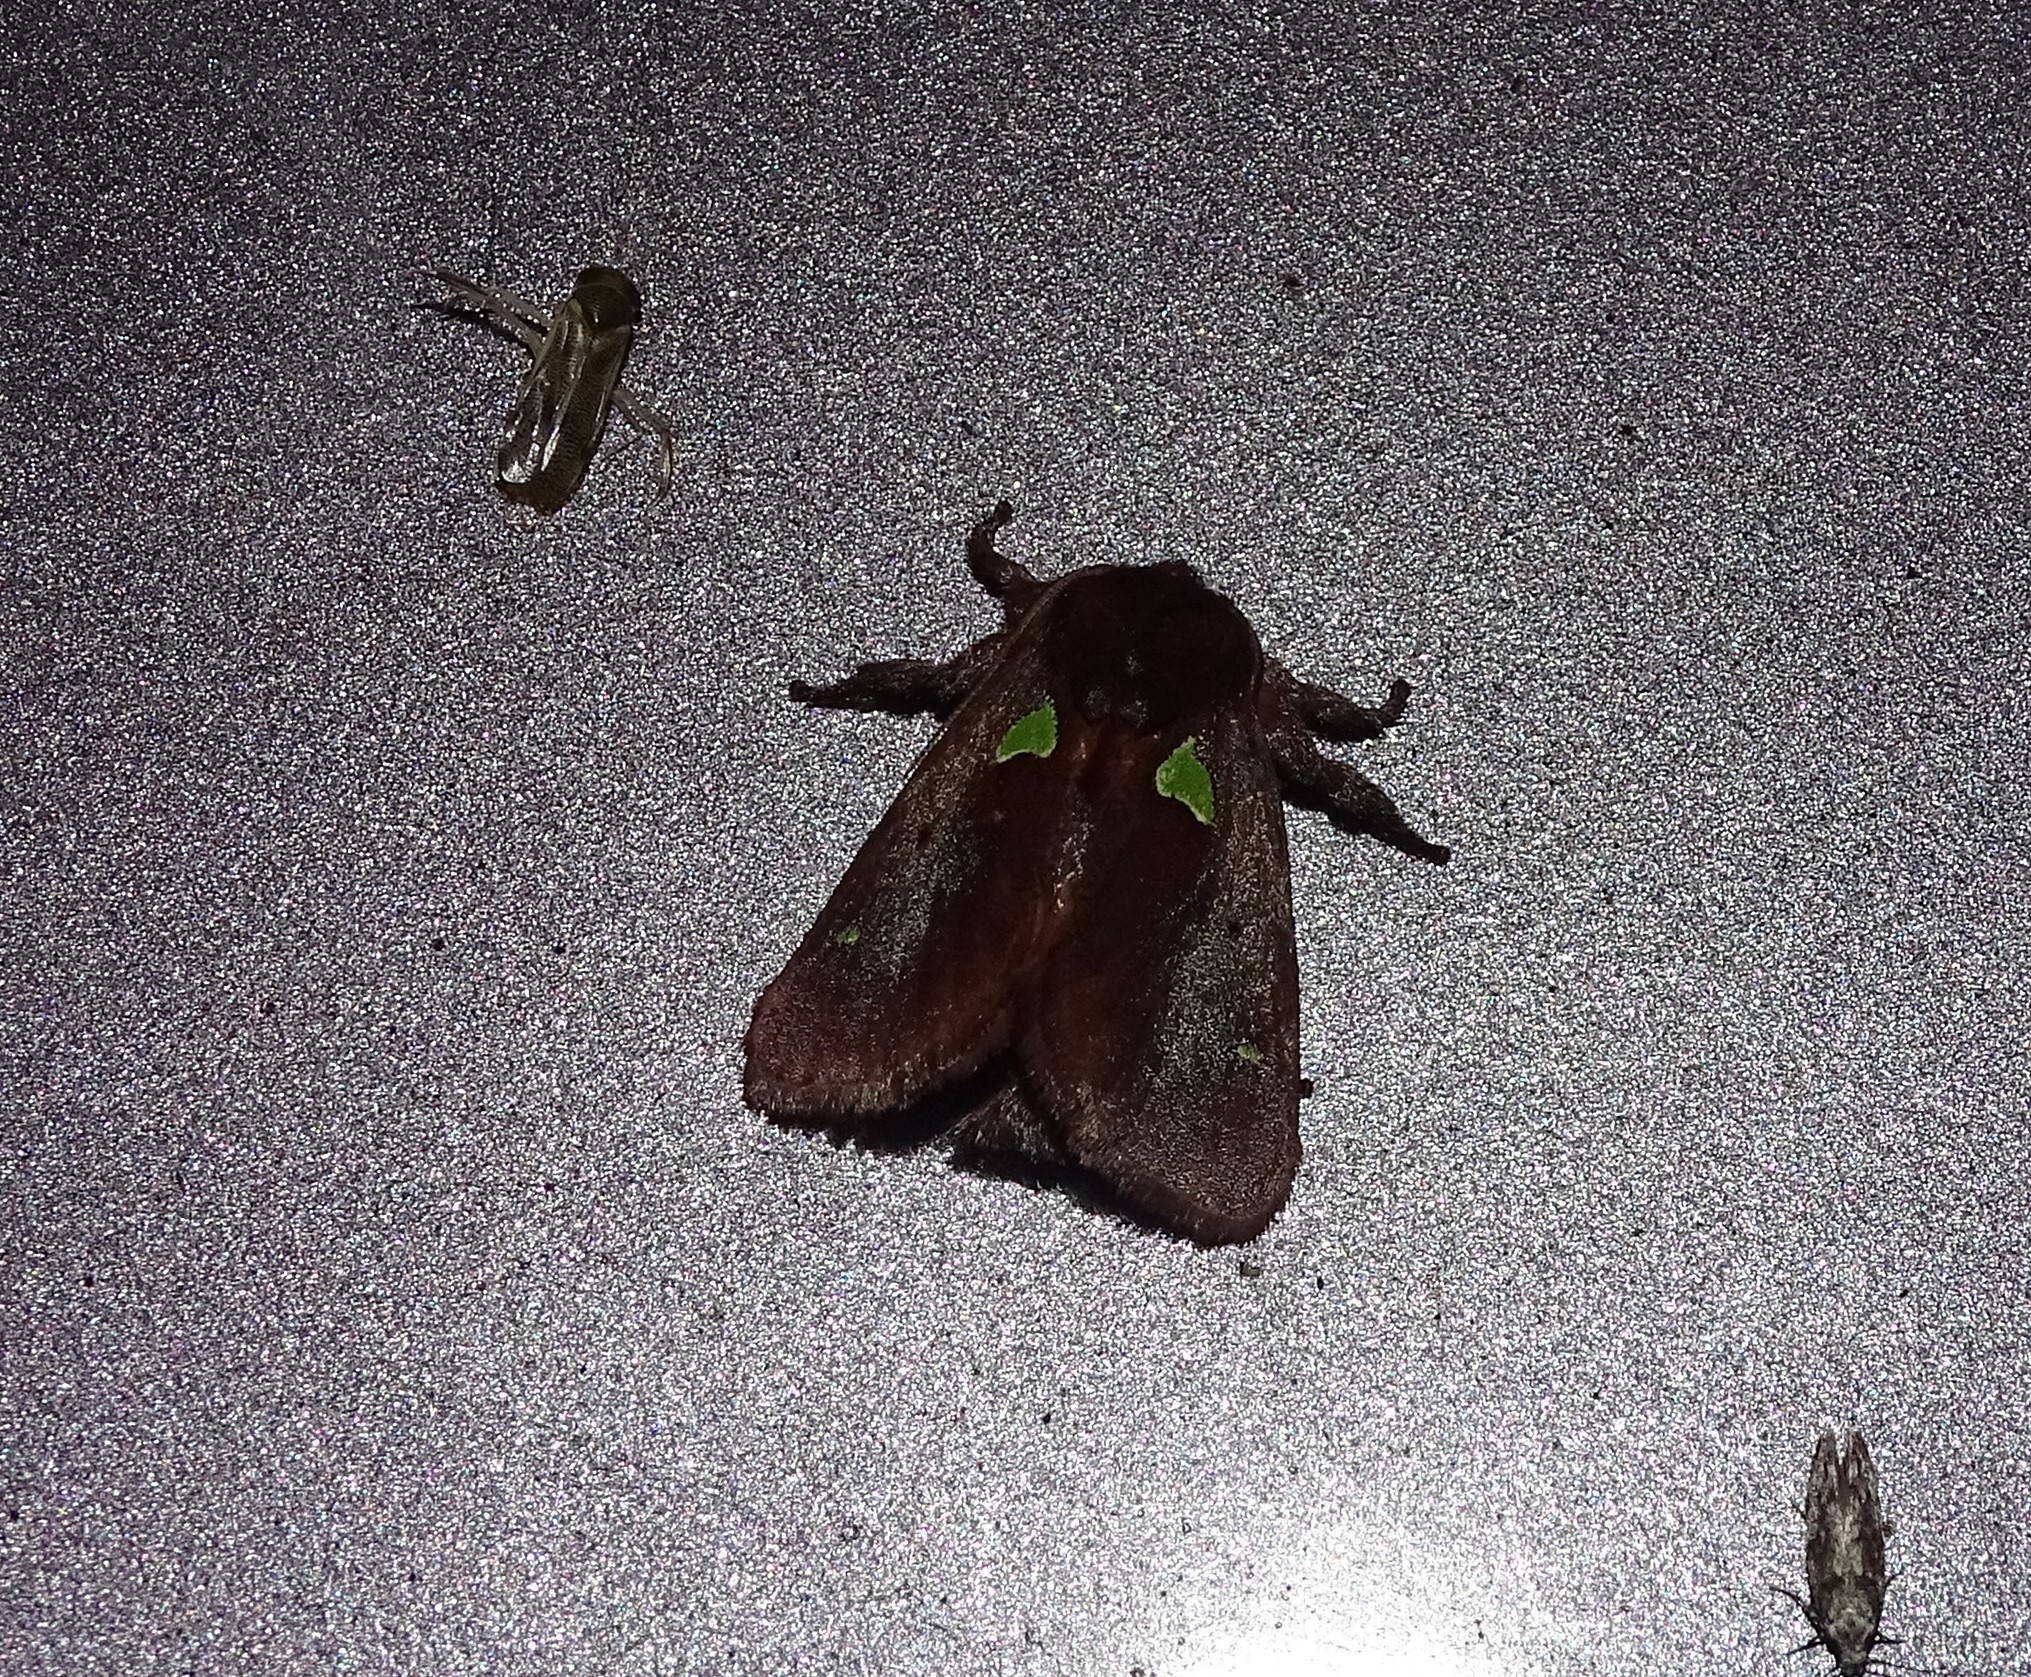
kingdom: Animalia
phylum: Arthropoda
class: Insecta
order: Lepidoptera
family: Limacodidae
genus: Euclea
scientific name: Euclea delphinii
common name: Spiny oak-slug moth
